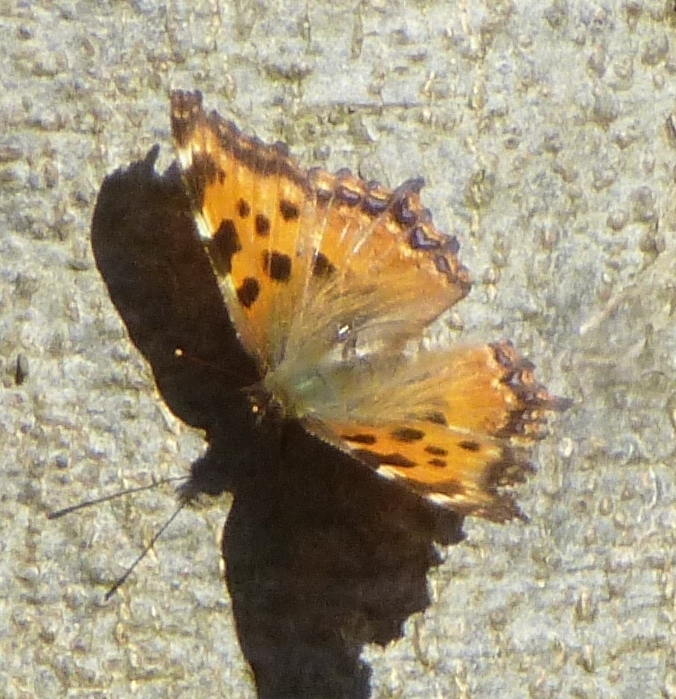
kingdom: Animalia
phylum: Arthropoda
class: Insecta
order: Lepidoptera
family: Nymphalidae
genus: Nymphalis
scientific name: Nymphalis polychloros
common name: Large tortoiseshell
